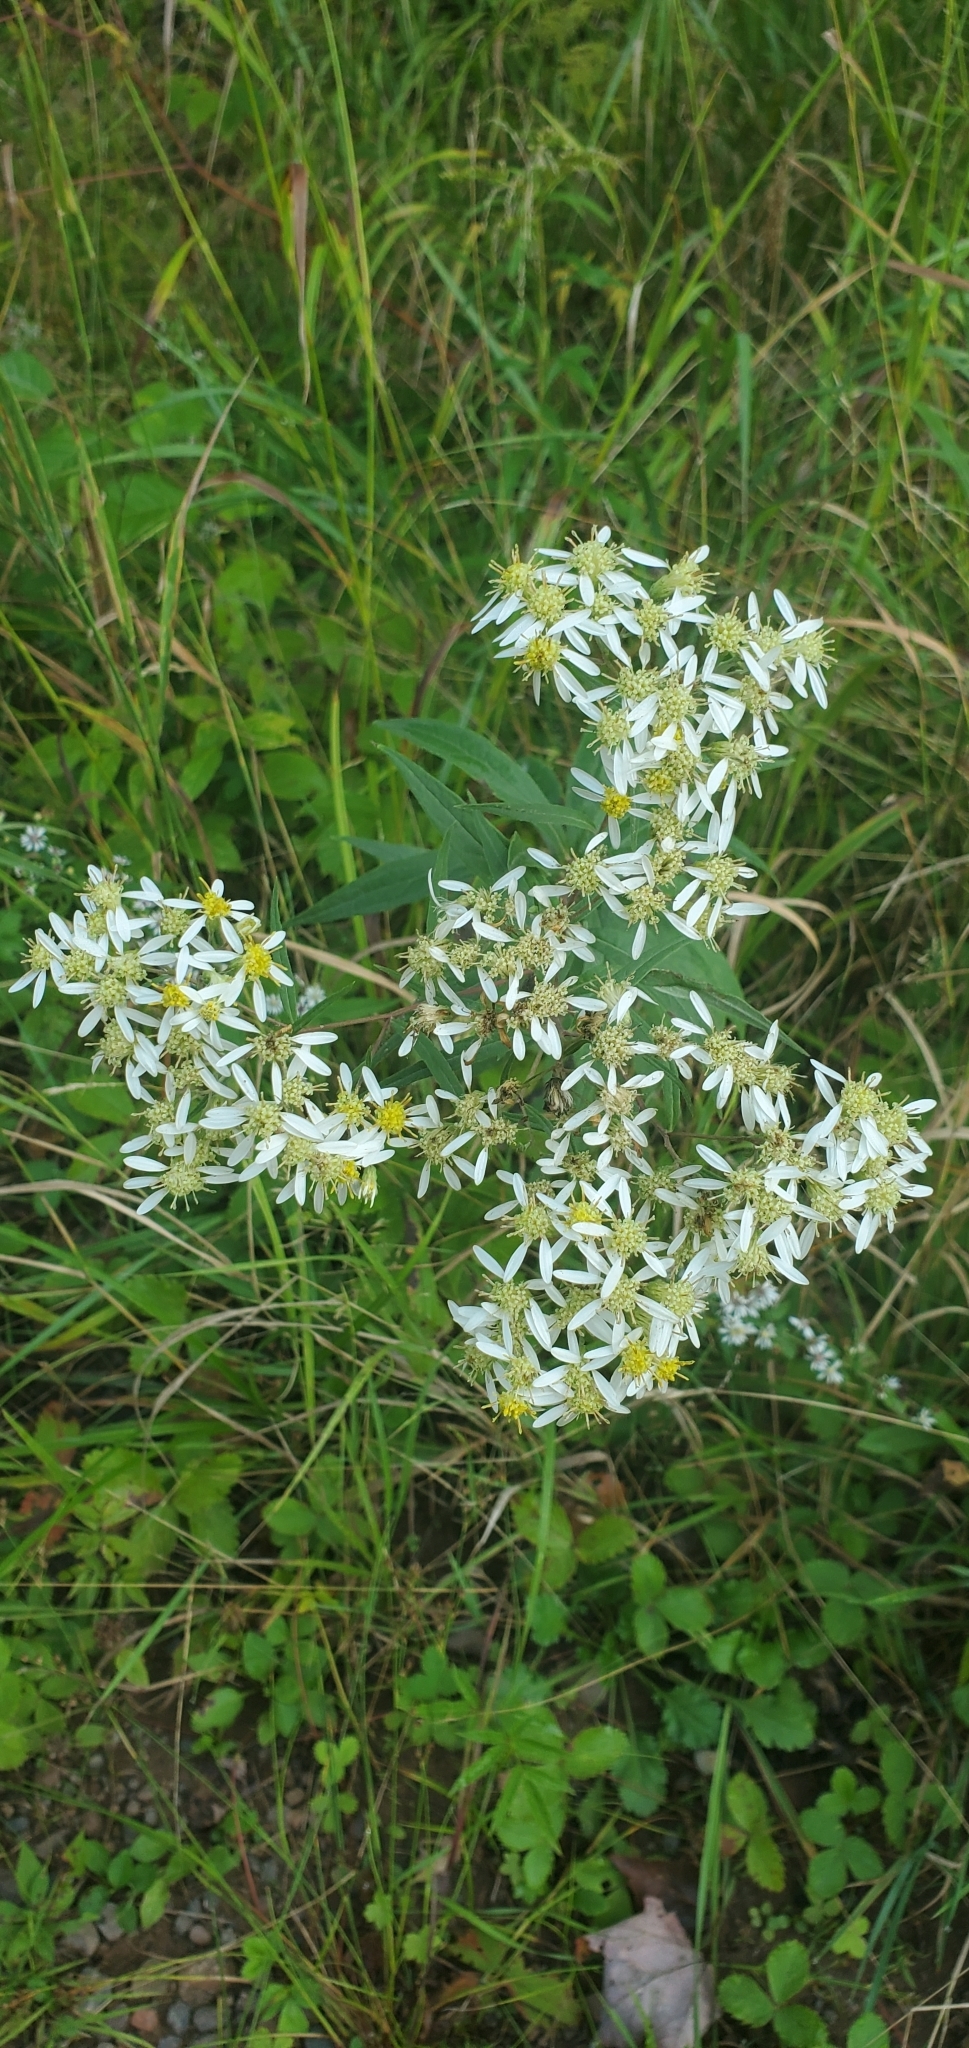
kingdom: Plantae
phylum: Tracheophyta
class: Magnoliopsida
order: Asterales
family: Asteraceae
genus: Doellingeria
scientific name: Doellingeria umbellata
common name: Flat-top white aster
